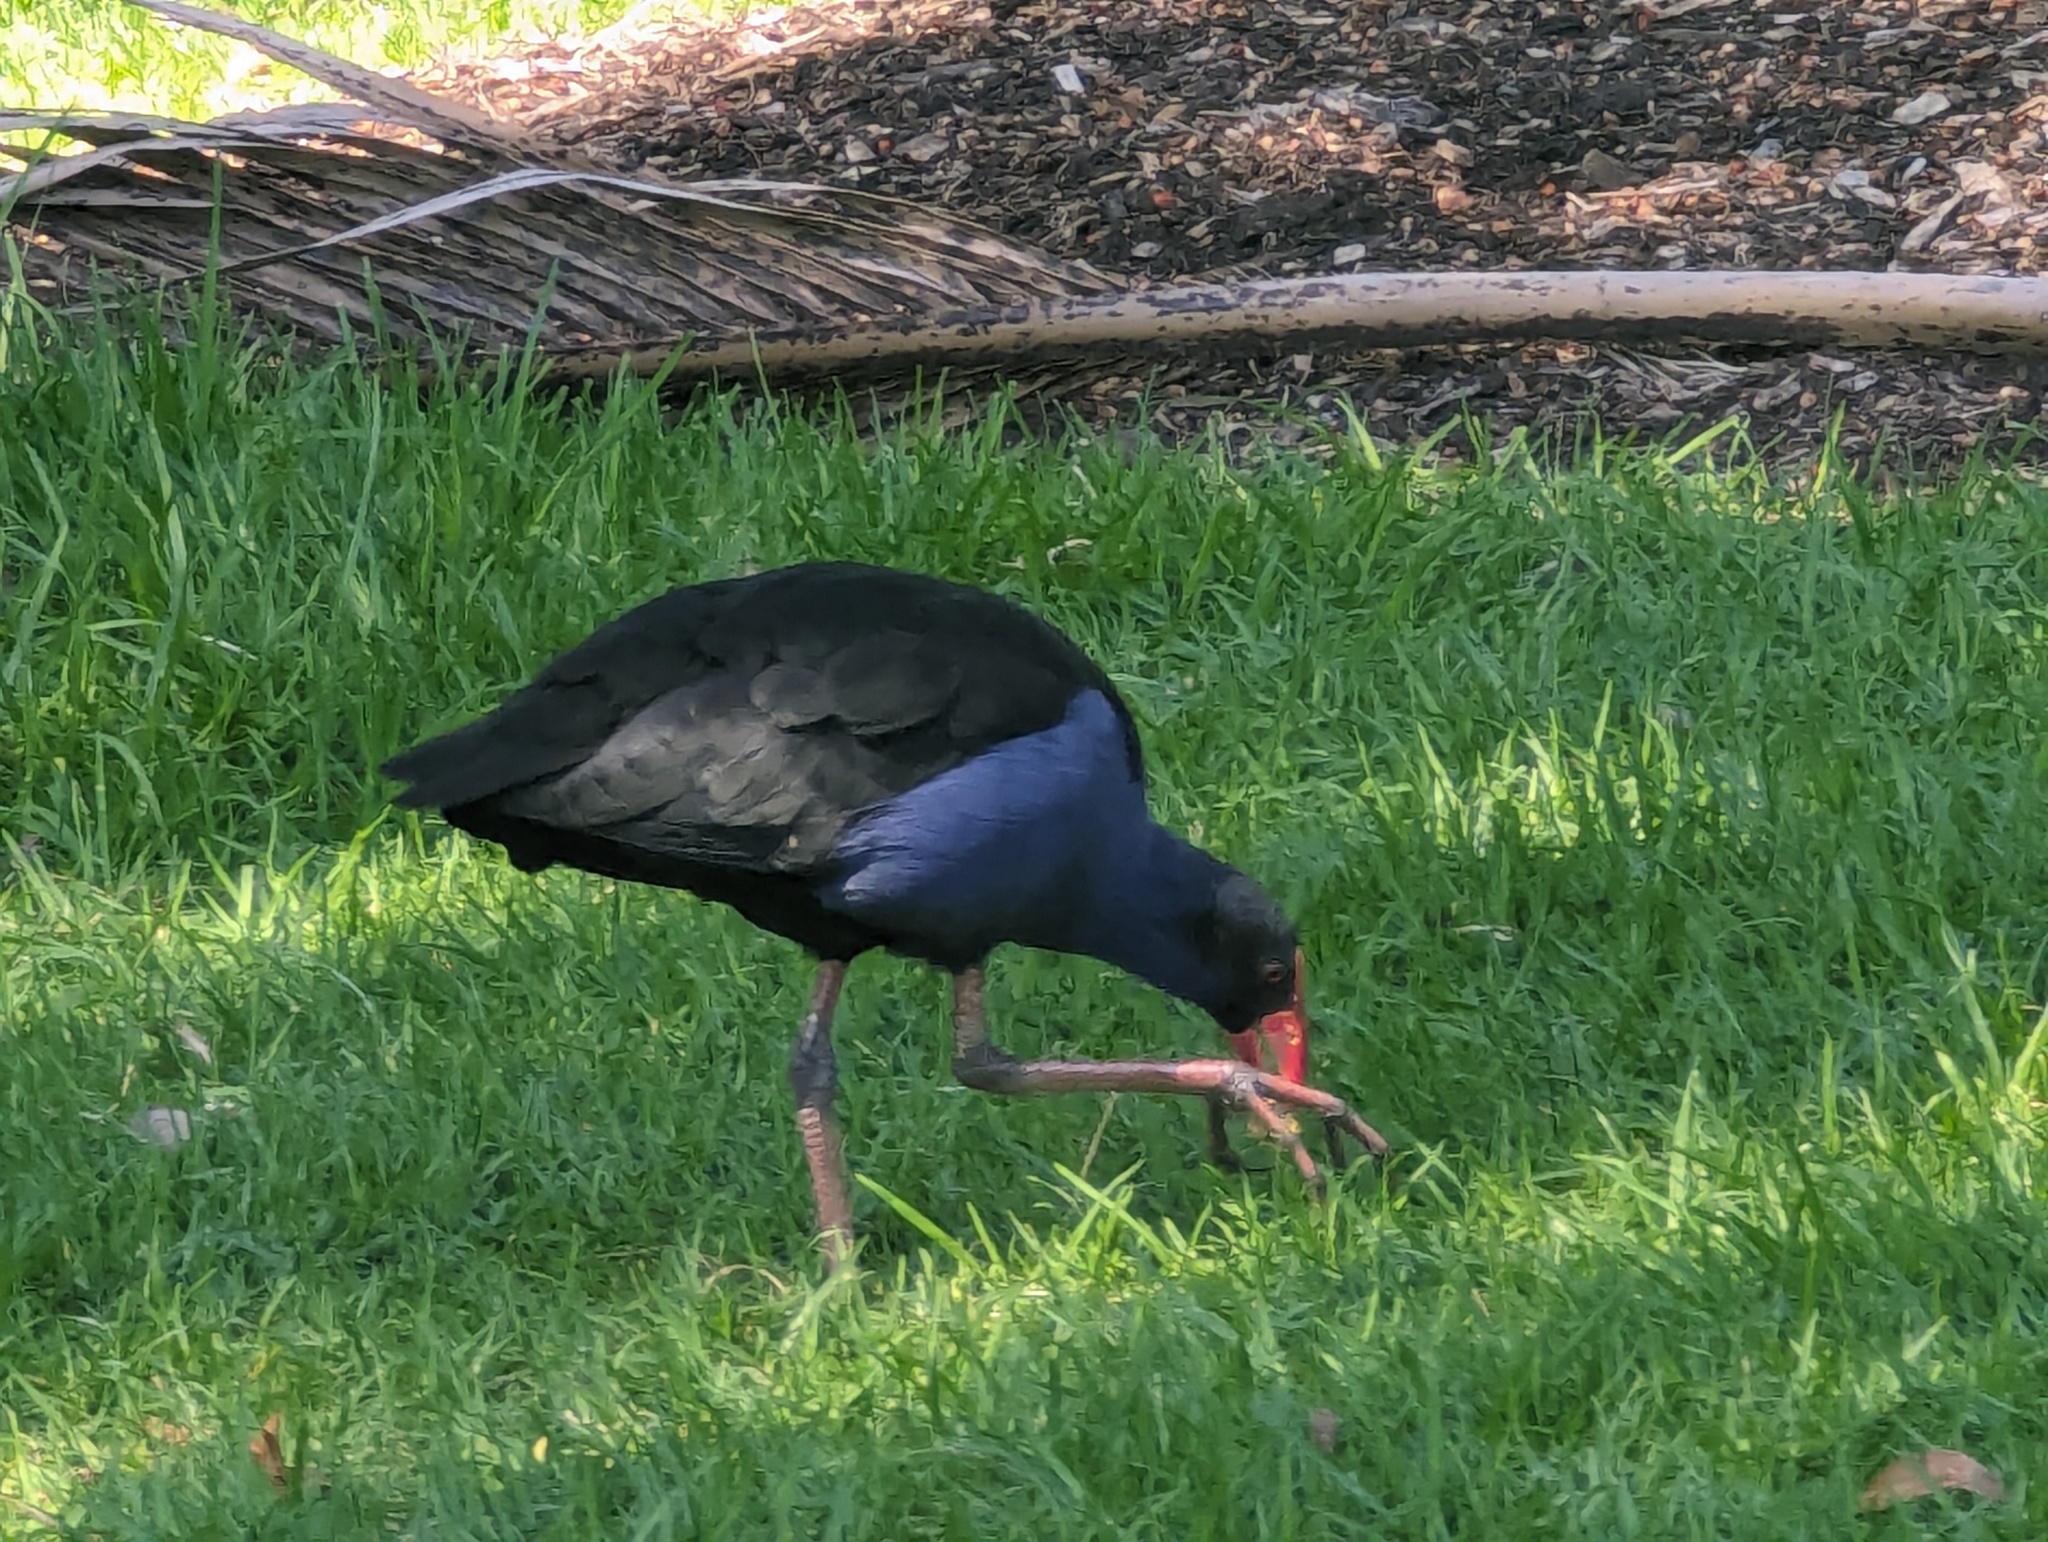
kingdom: Animalia
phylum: Chordata
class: Aves
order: Gruiformes
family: Rallidae
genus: Porphyrio
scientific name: Porphyrio melanotus
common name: Australasian swamphen
